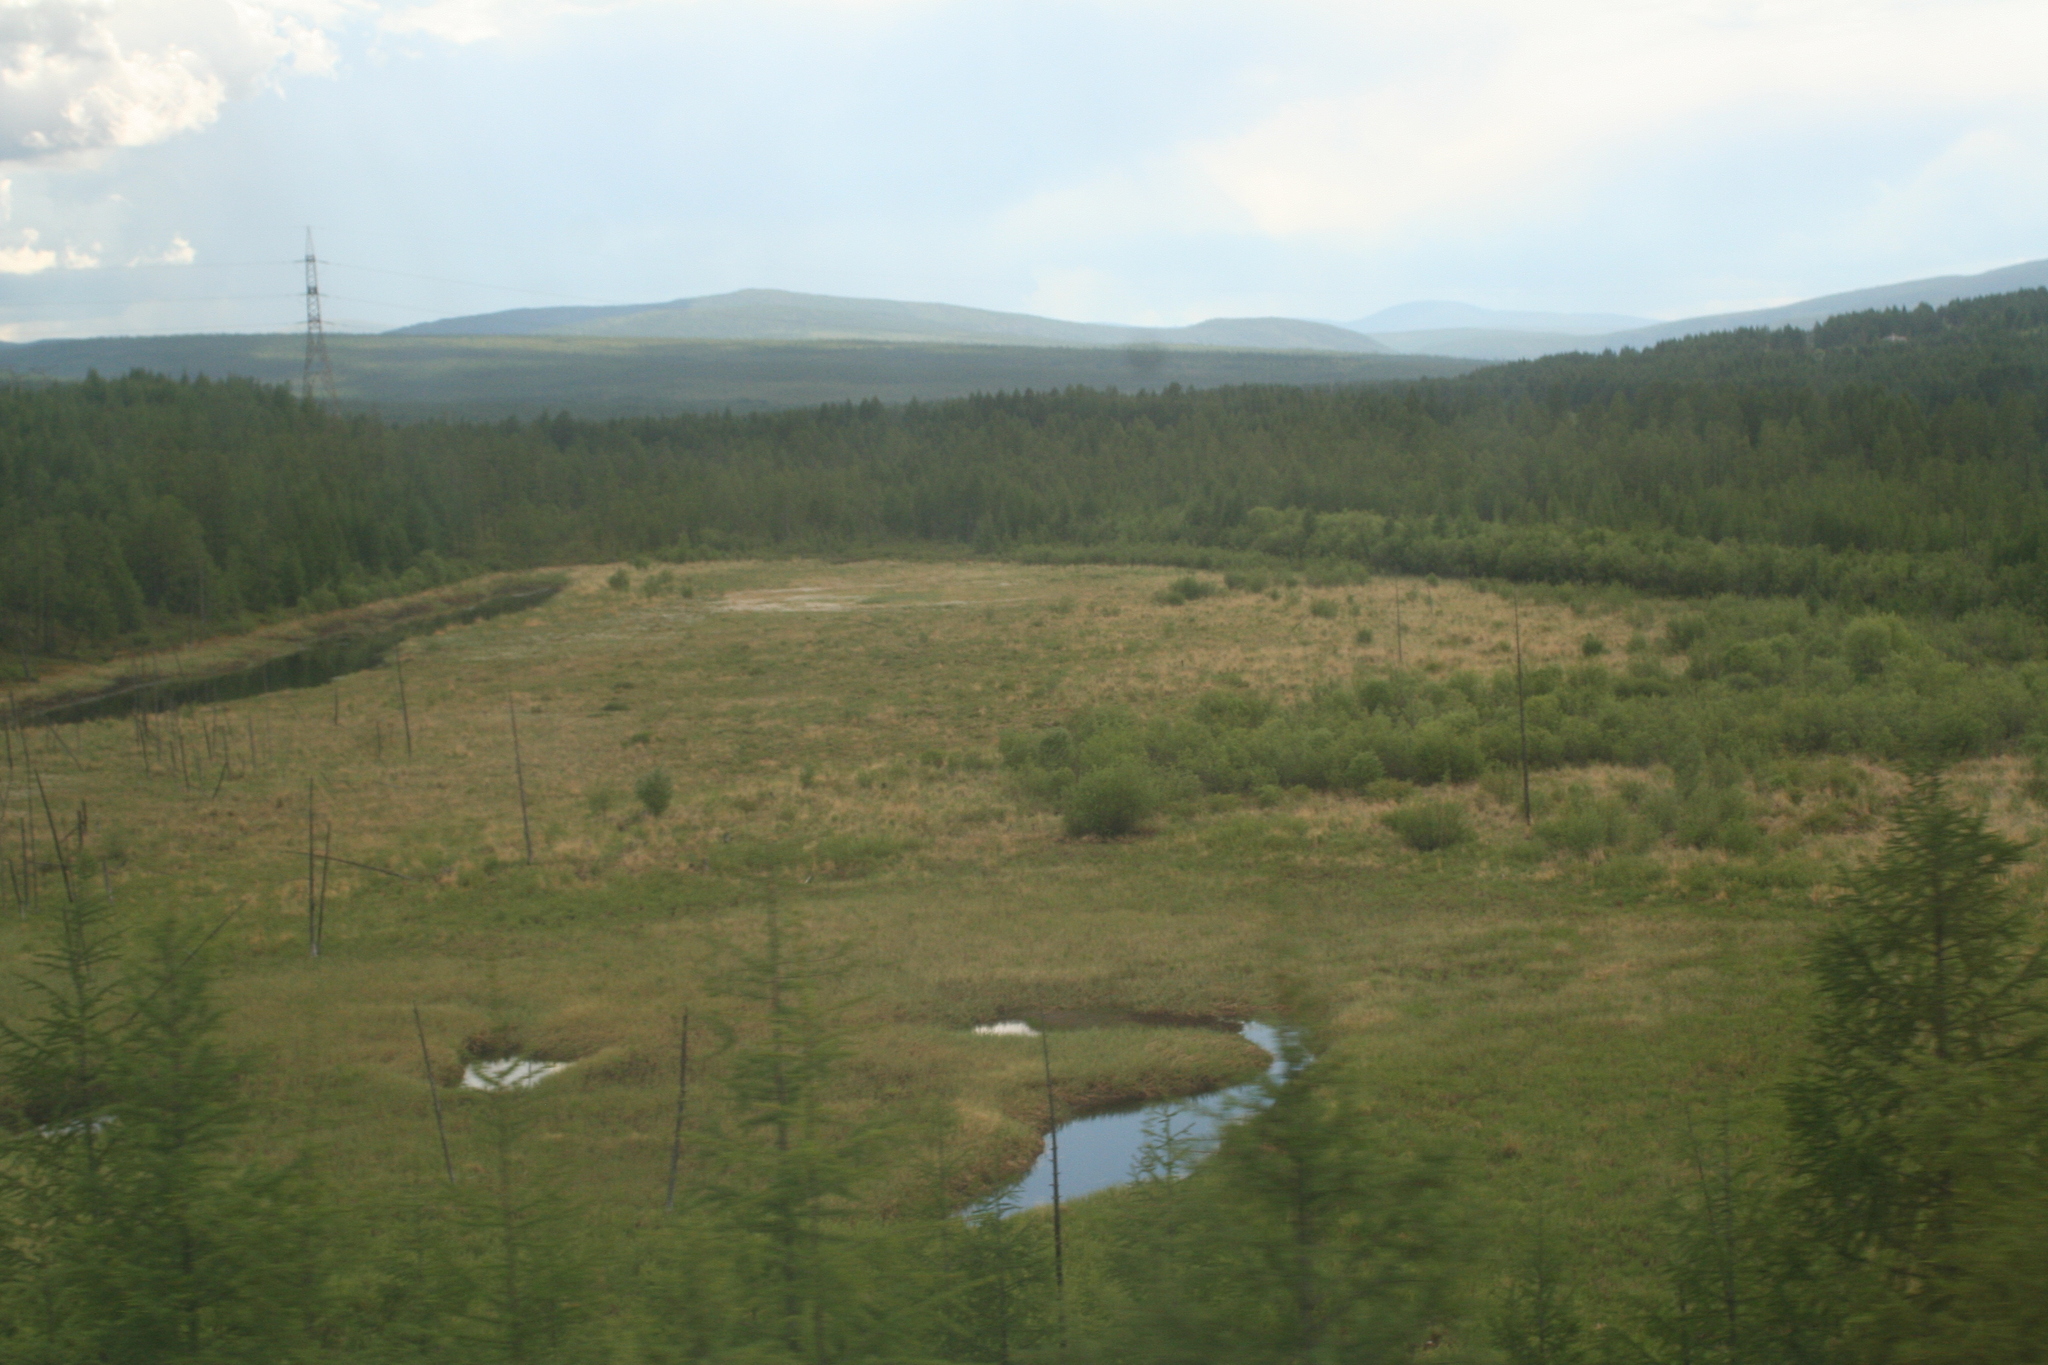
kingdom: Plantae
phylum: Tracheophyta
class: Pinopsida
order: Pinales
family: Pinaceae
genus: Larix
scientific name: Larix gmelinii
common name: Dahurian larch
